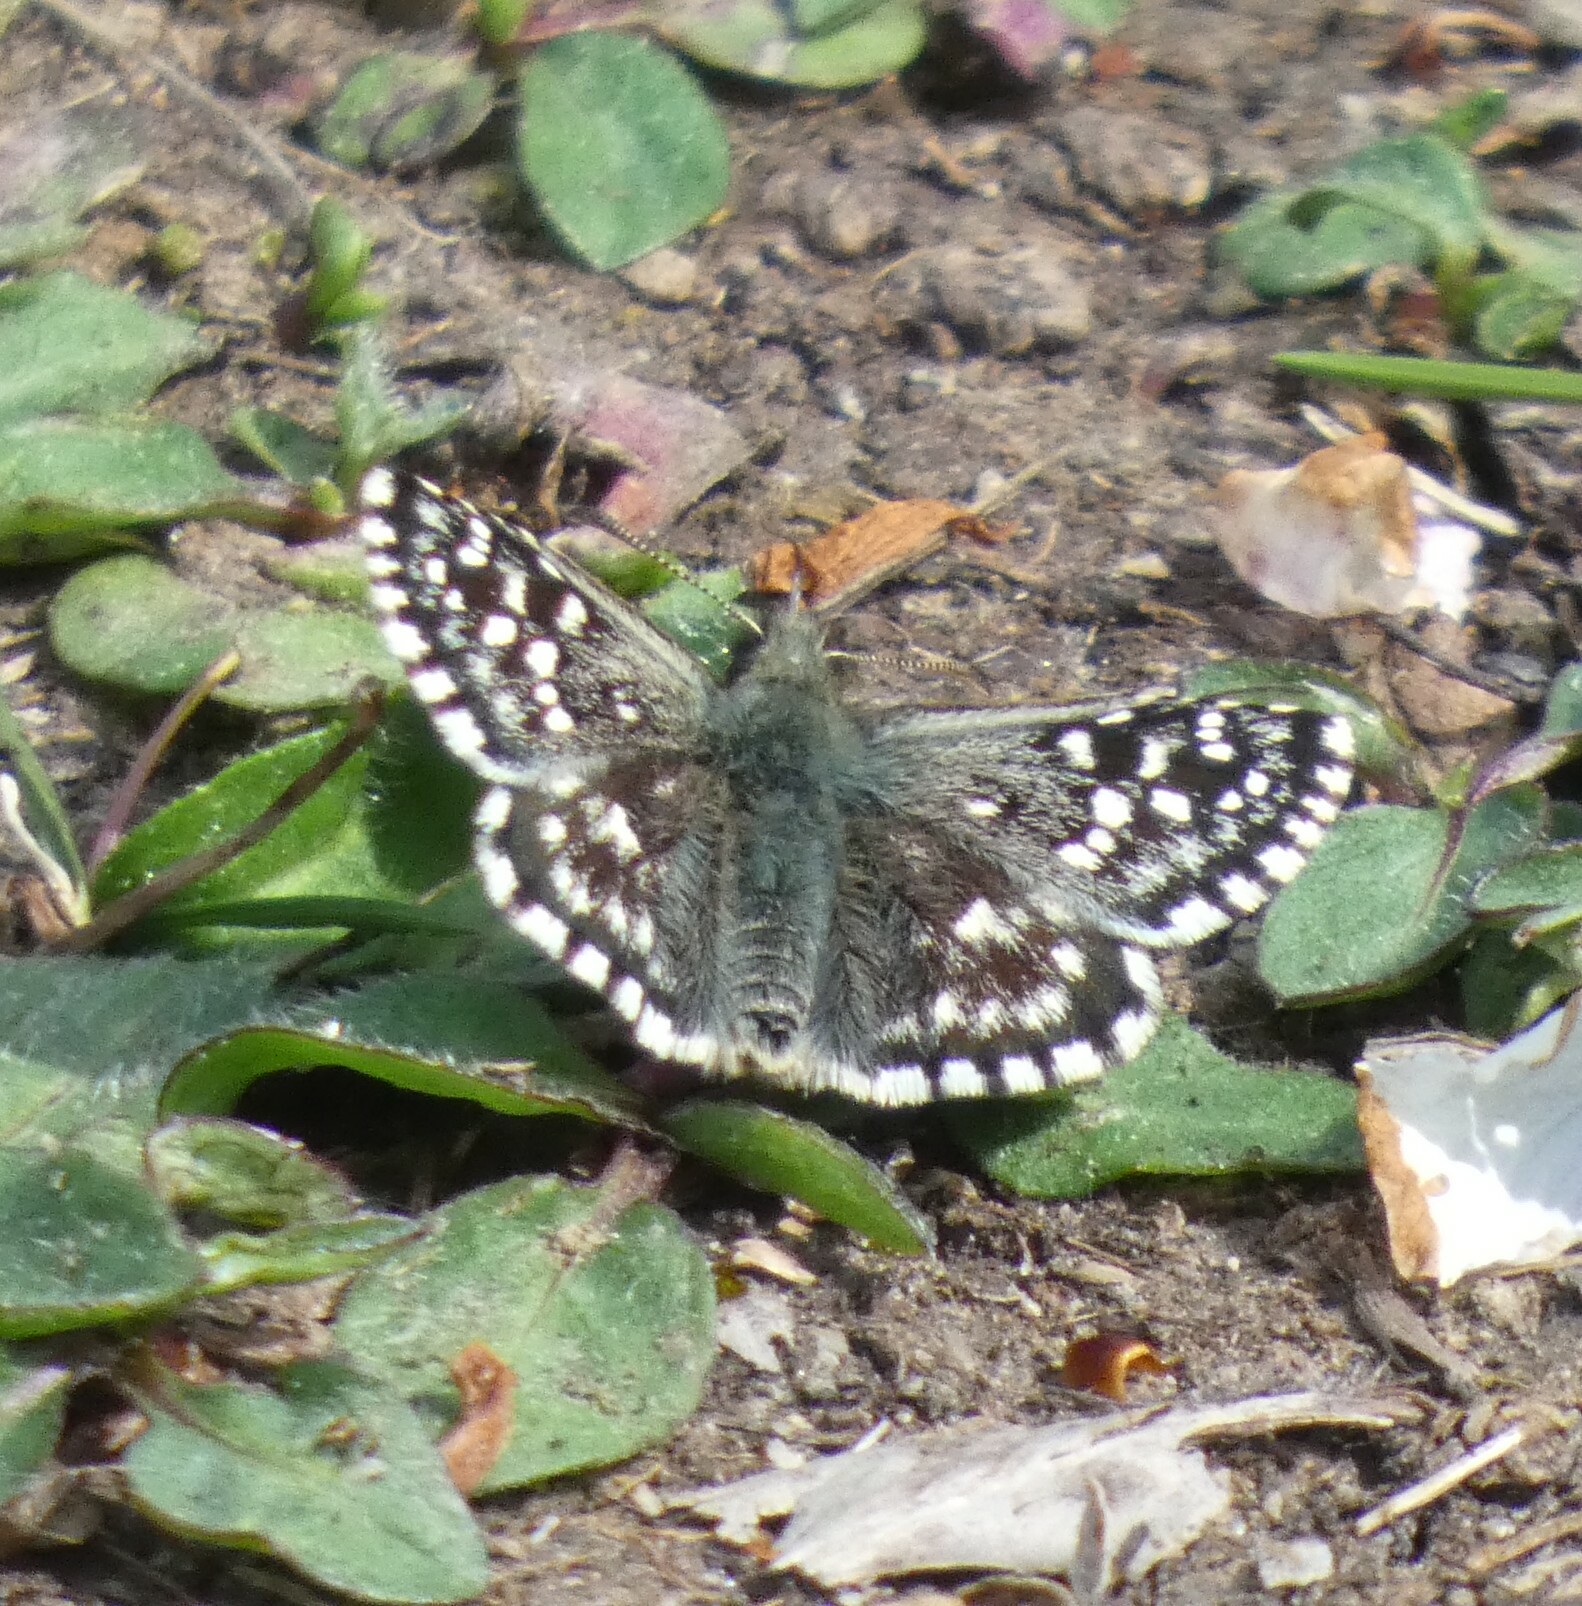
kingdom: Animalia
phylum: Arthropoda
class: Insecta
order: Lepidoptera
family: Hesperiidae
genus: Pyrgus
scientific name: Pyrgus malvae
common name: Grizzled skipper
